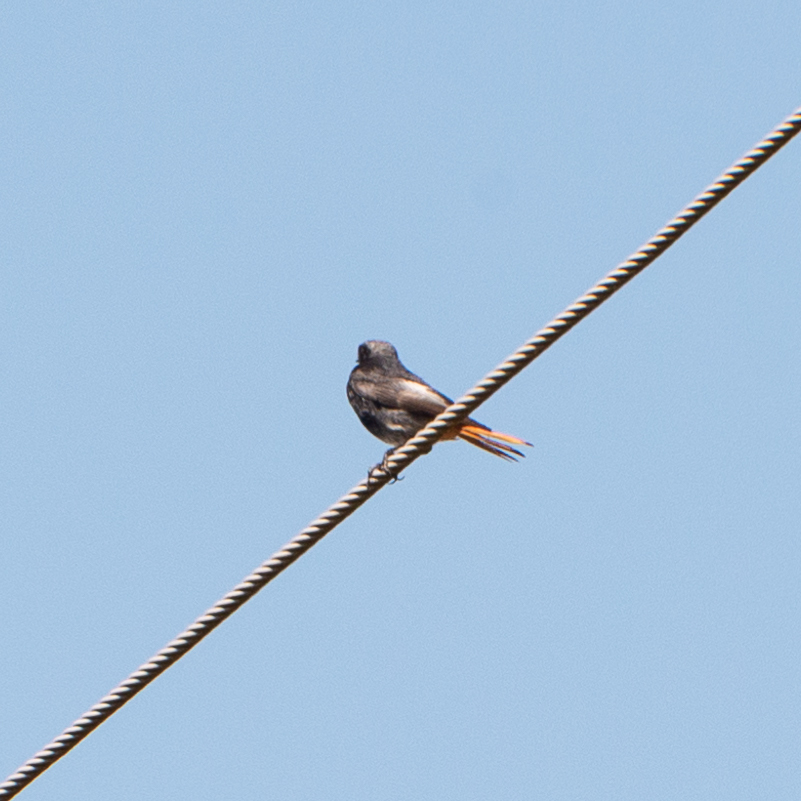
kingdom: Animalia
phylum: Chordata
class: Aves
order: Passeriformes
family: Muscicapidae
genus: Phoenicurus
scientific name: Phoenicurus ochruros
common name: Black redstart
